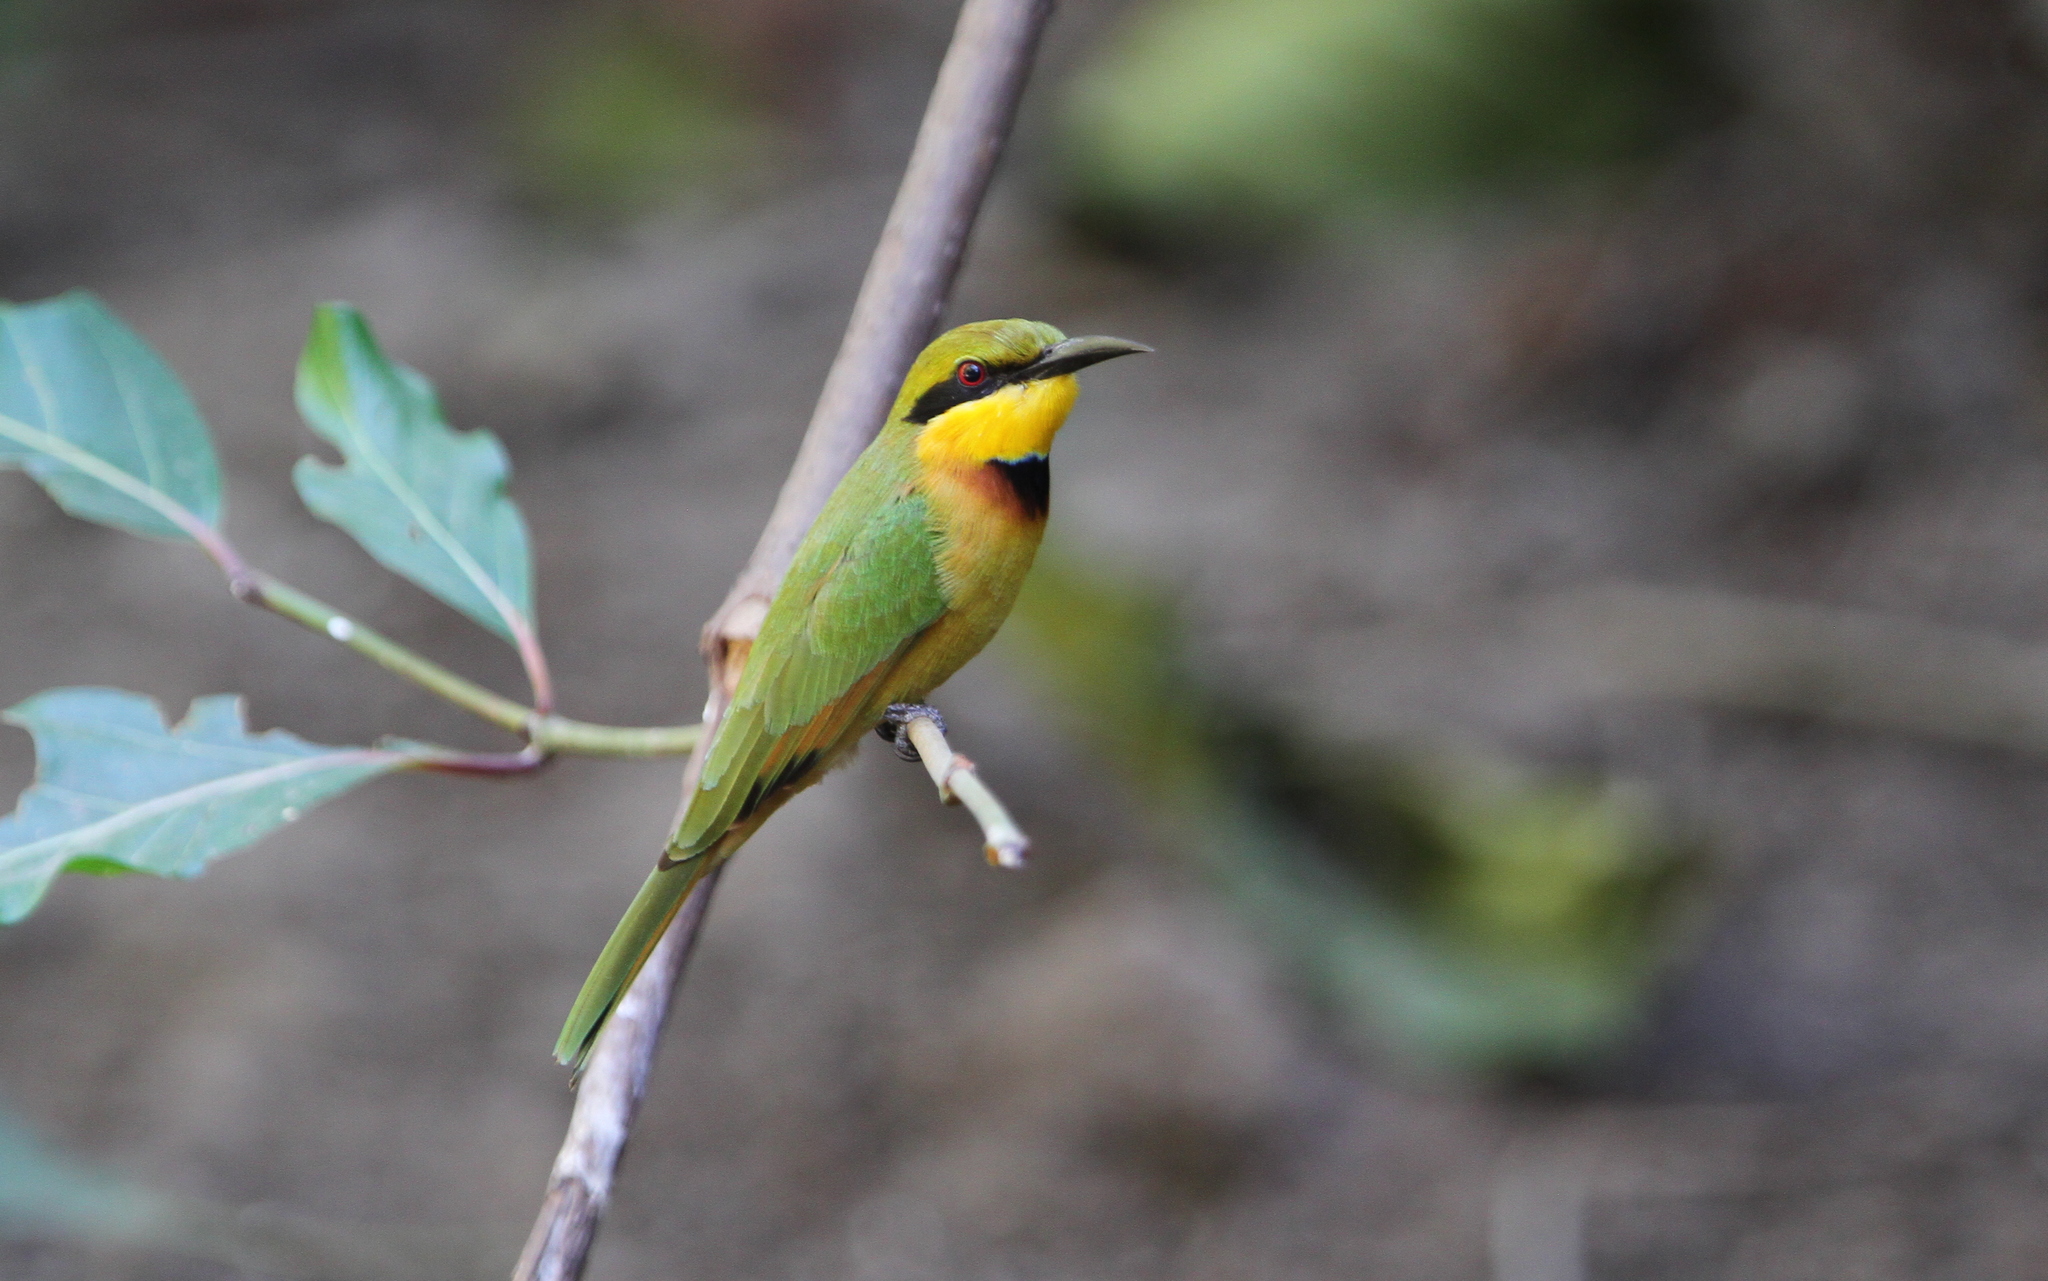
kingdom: Animalia
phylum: Chordata
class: Aves
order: Coraciiformes
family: Meropidae
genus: Merops
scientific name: Merops pusillus
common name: Little bee-eater
